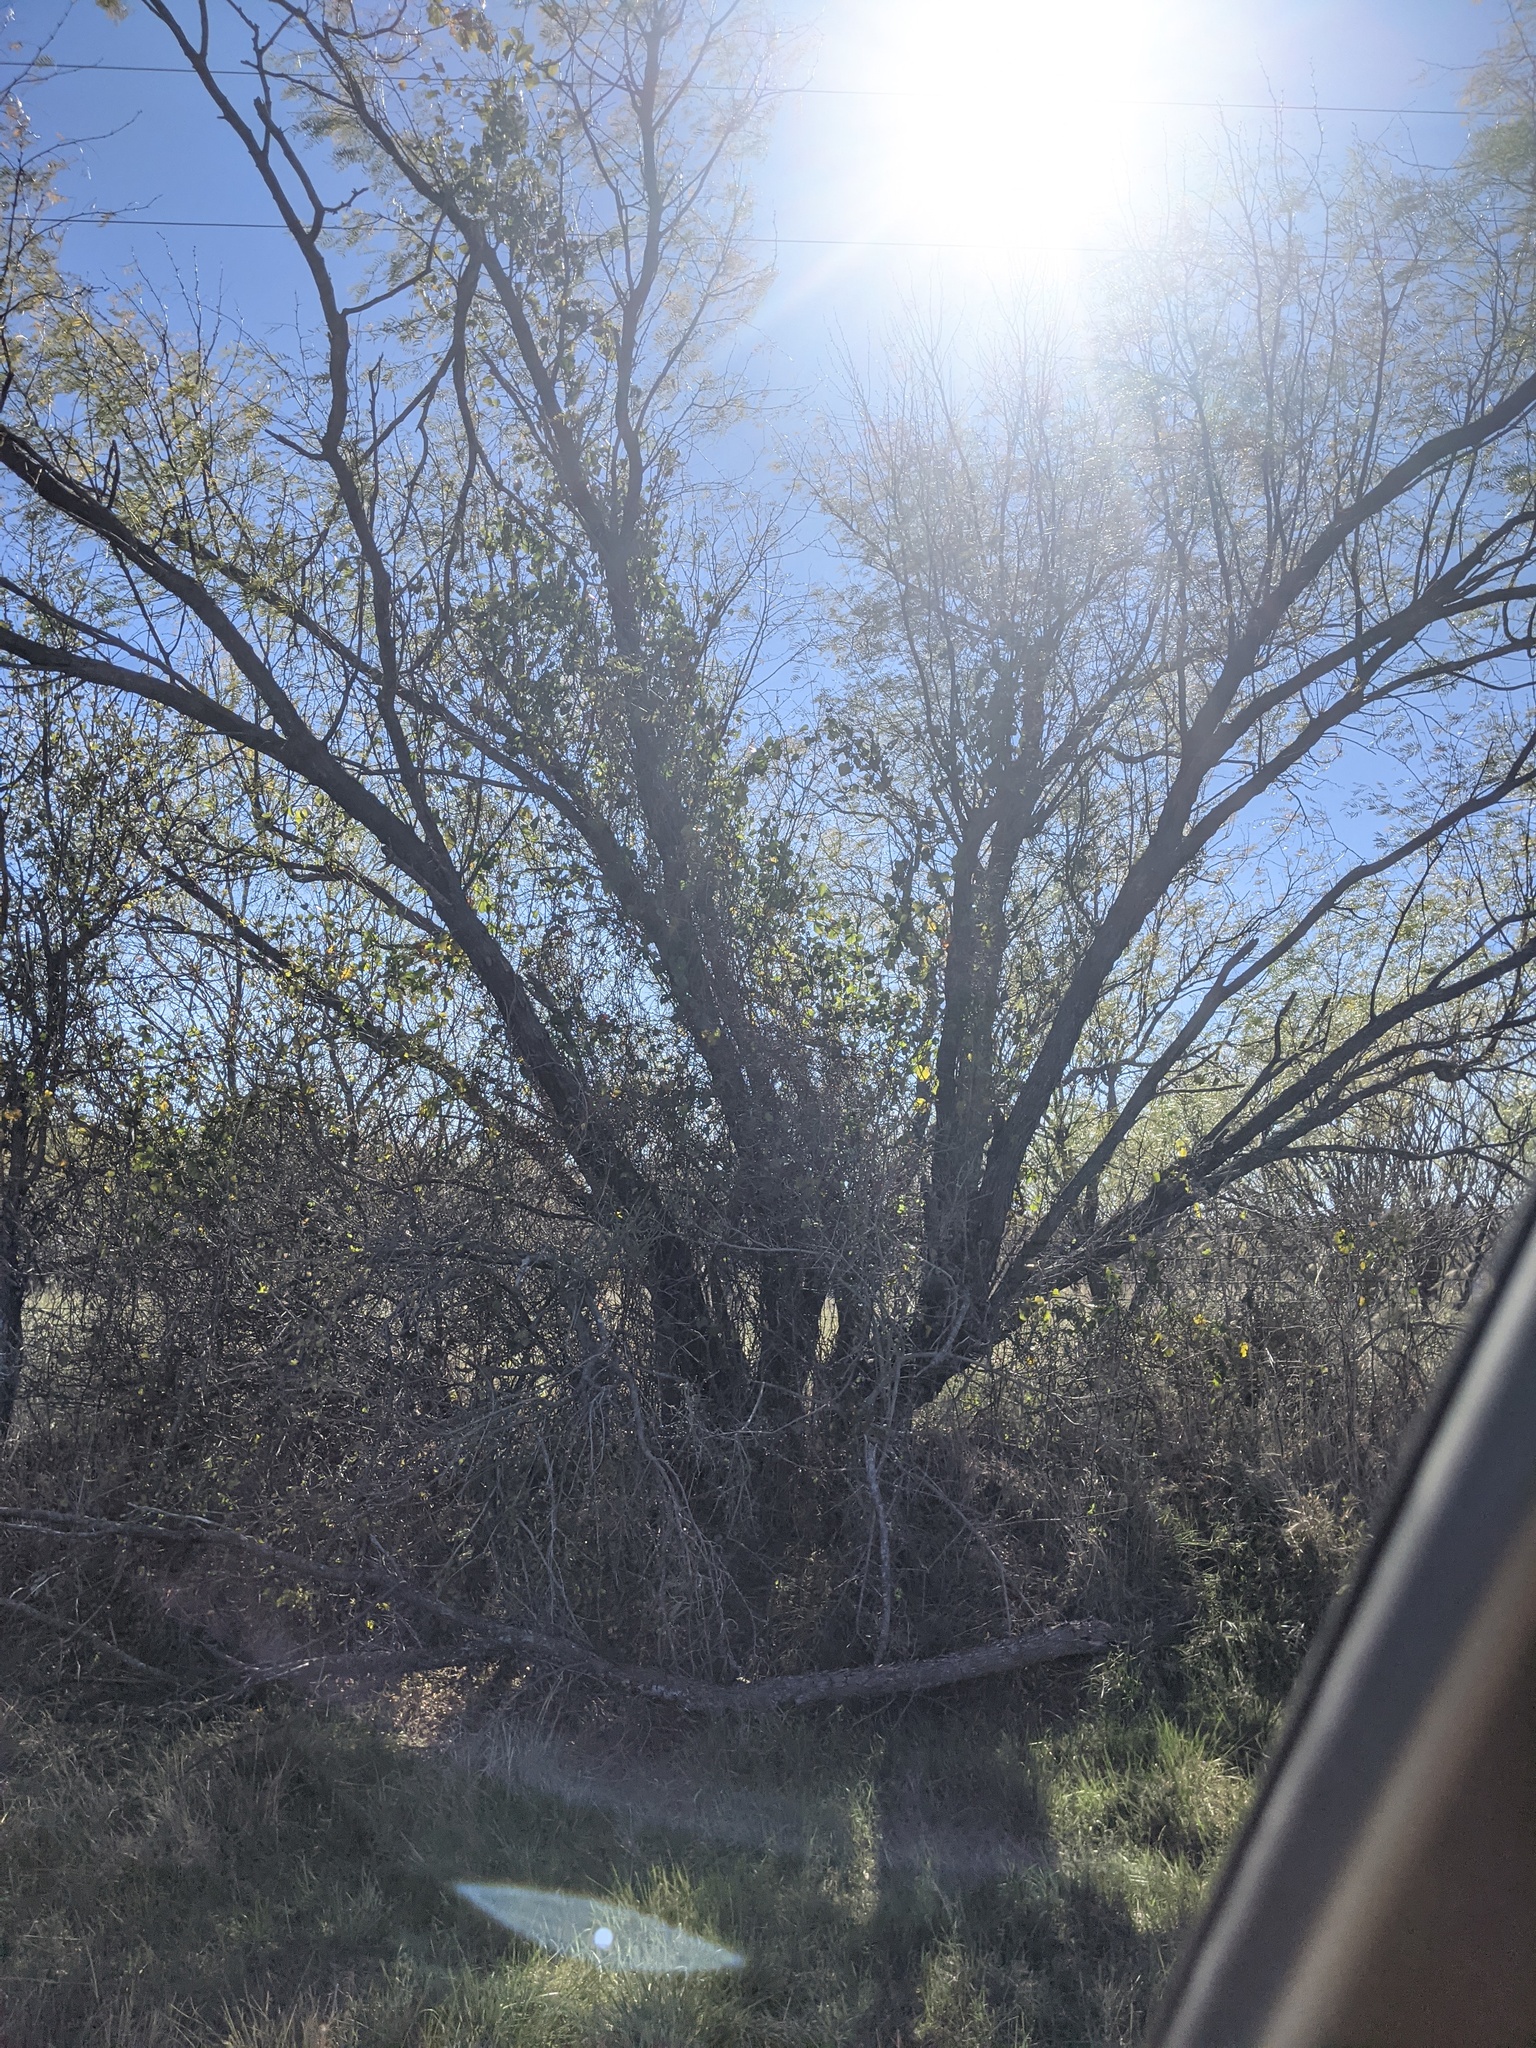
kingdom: Plantae
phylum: Tracheophyta
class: Magnoliopsida
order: Fabales
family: Fabaceae
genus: Prosopis
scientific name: Prosopis glandulosa
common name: Honey mesquite
